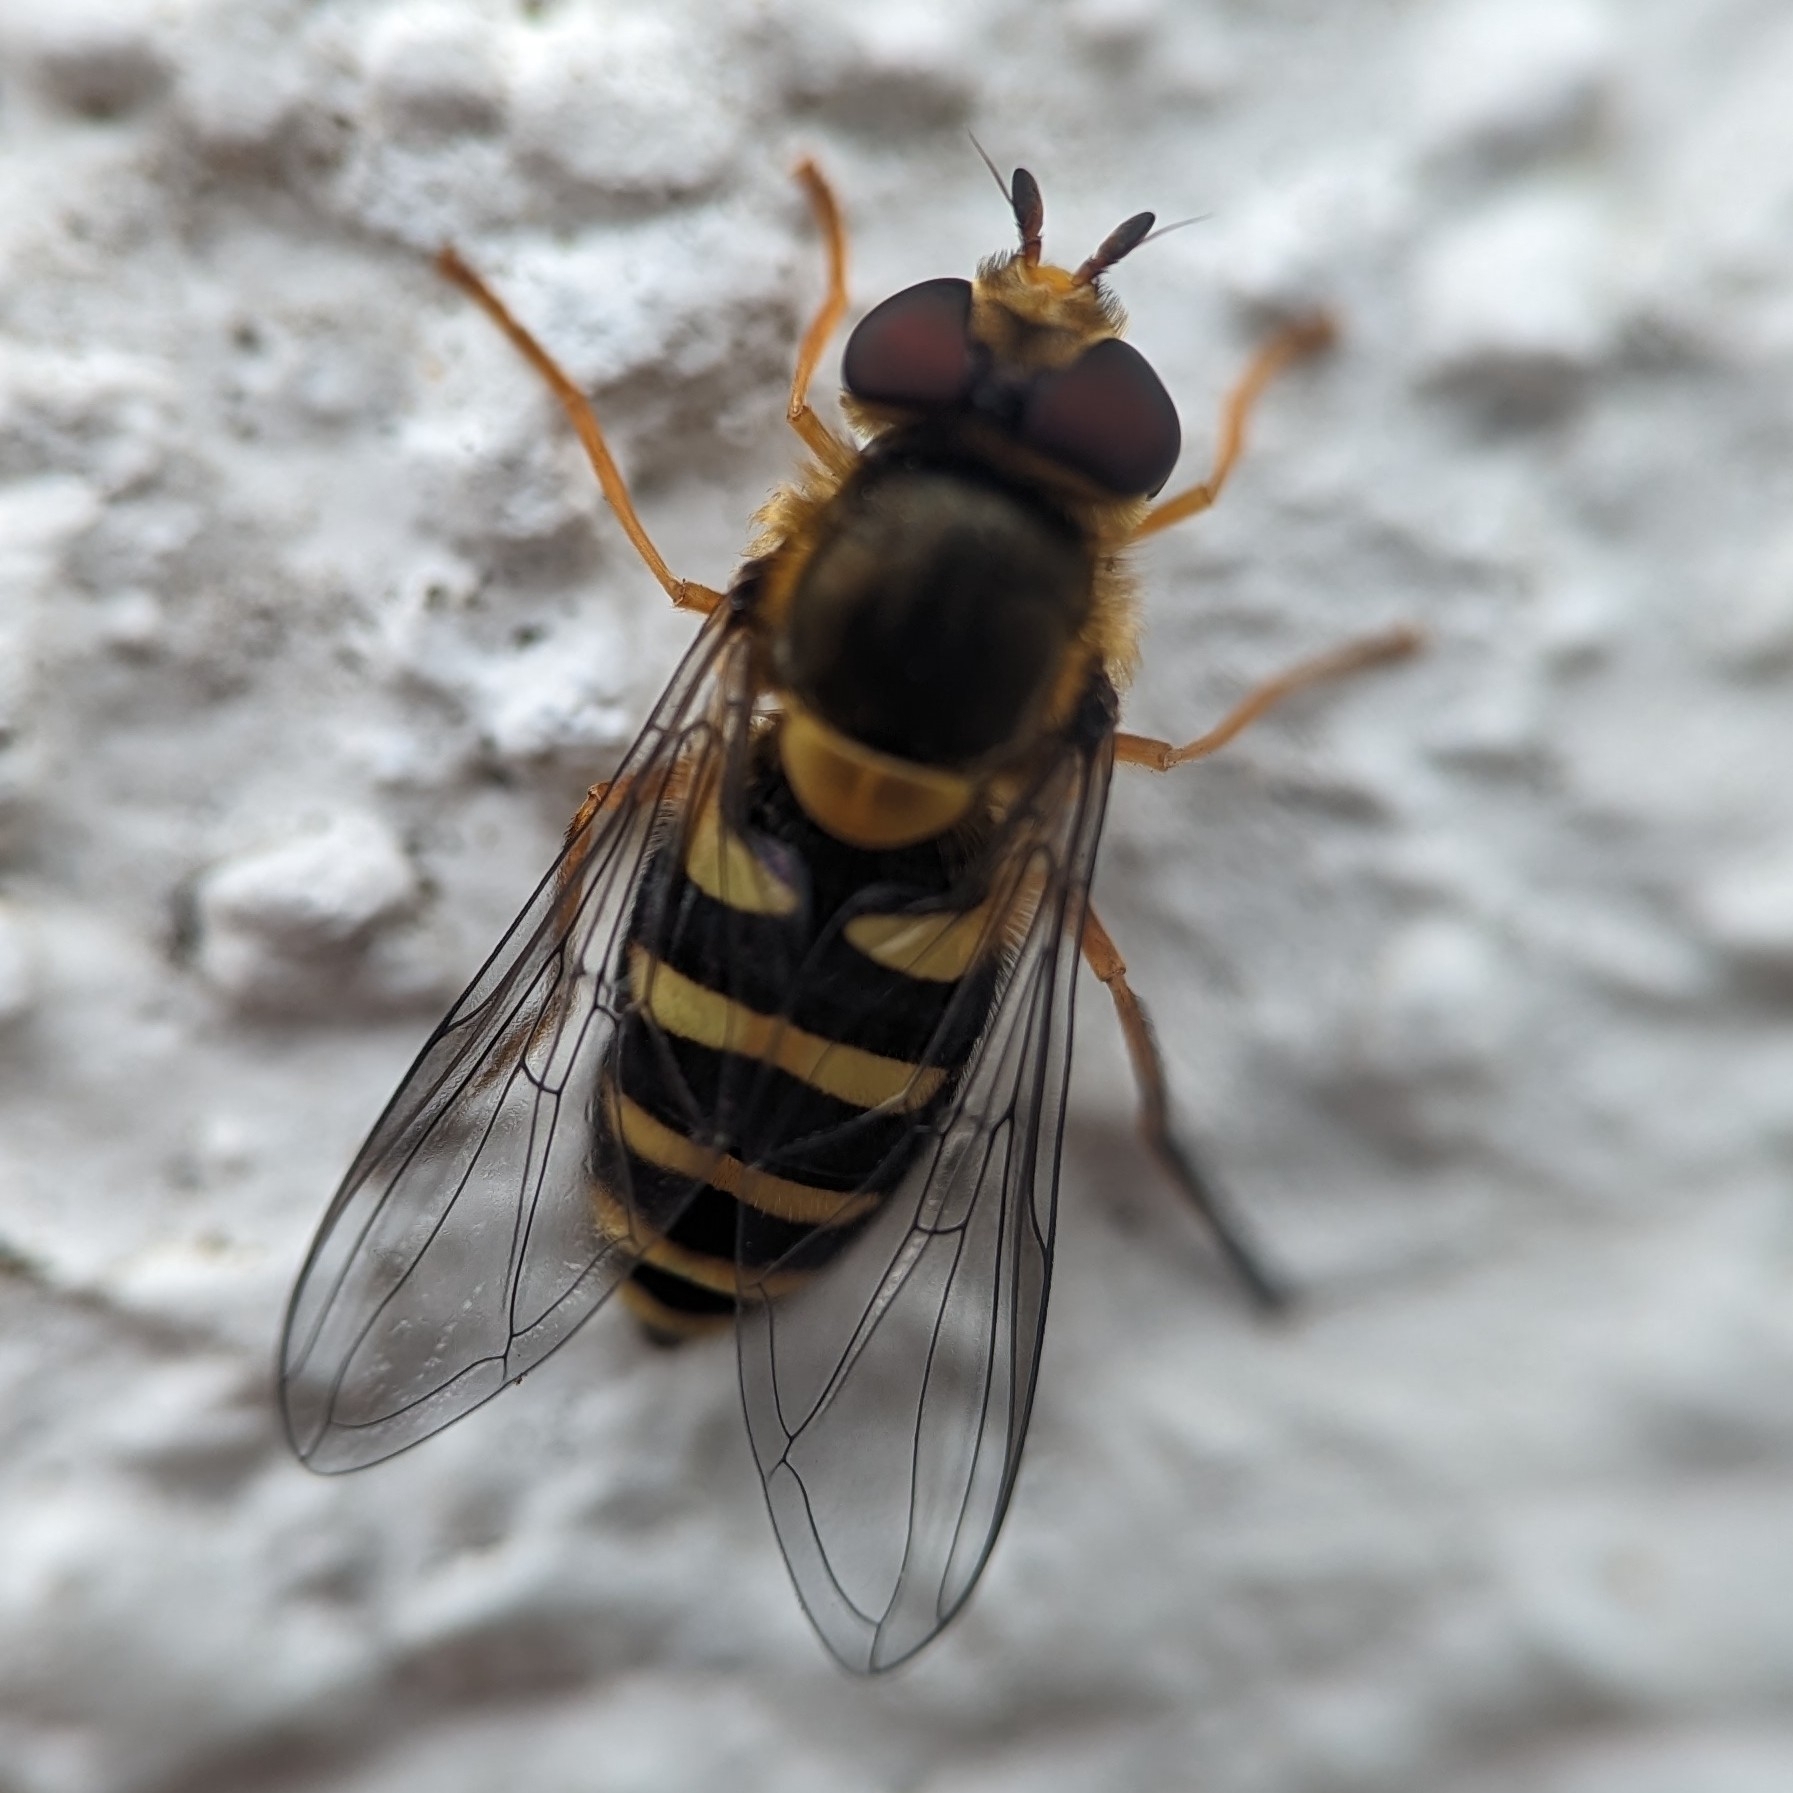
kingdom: Animalia
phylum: Arthropoda
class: Insecta
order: Diptera
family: Syrphidae
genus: Syrphus
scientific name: Syrphus opinator
